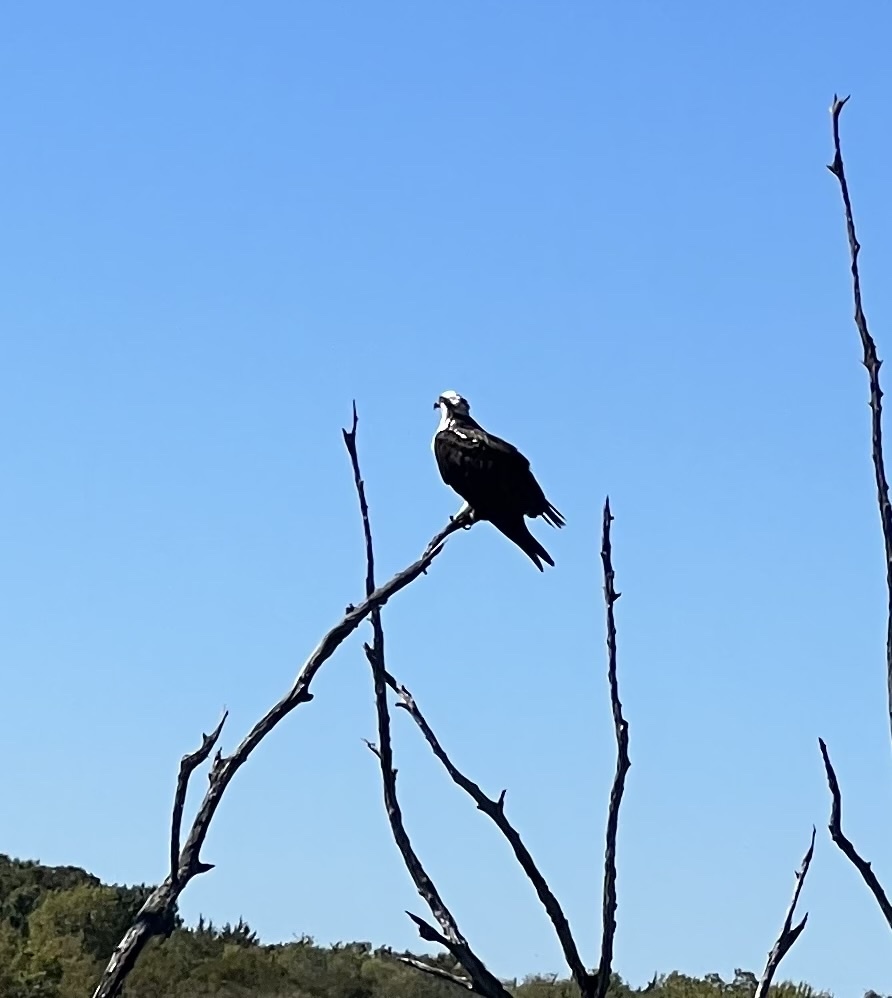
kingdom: Animalia
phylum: Chordata
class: Aves
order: Accipitriformes
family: Pandionidae
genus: Pandion
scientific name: Pandion haliaetus
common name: Osprey
